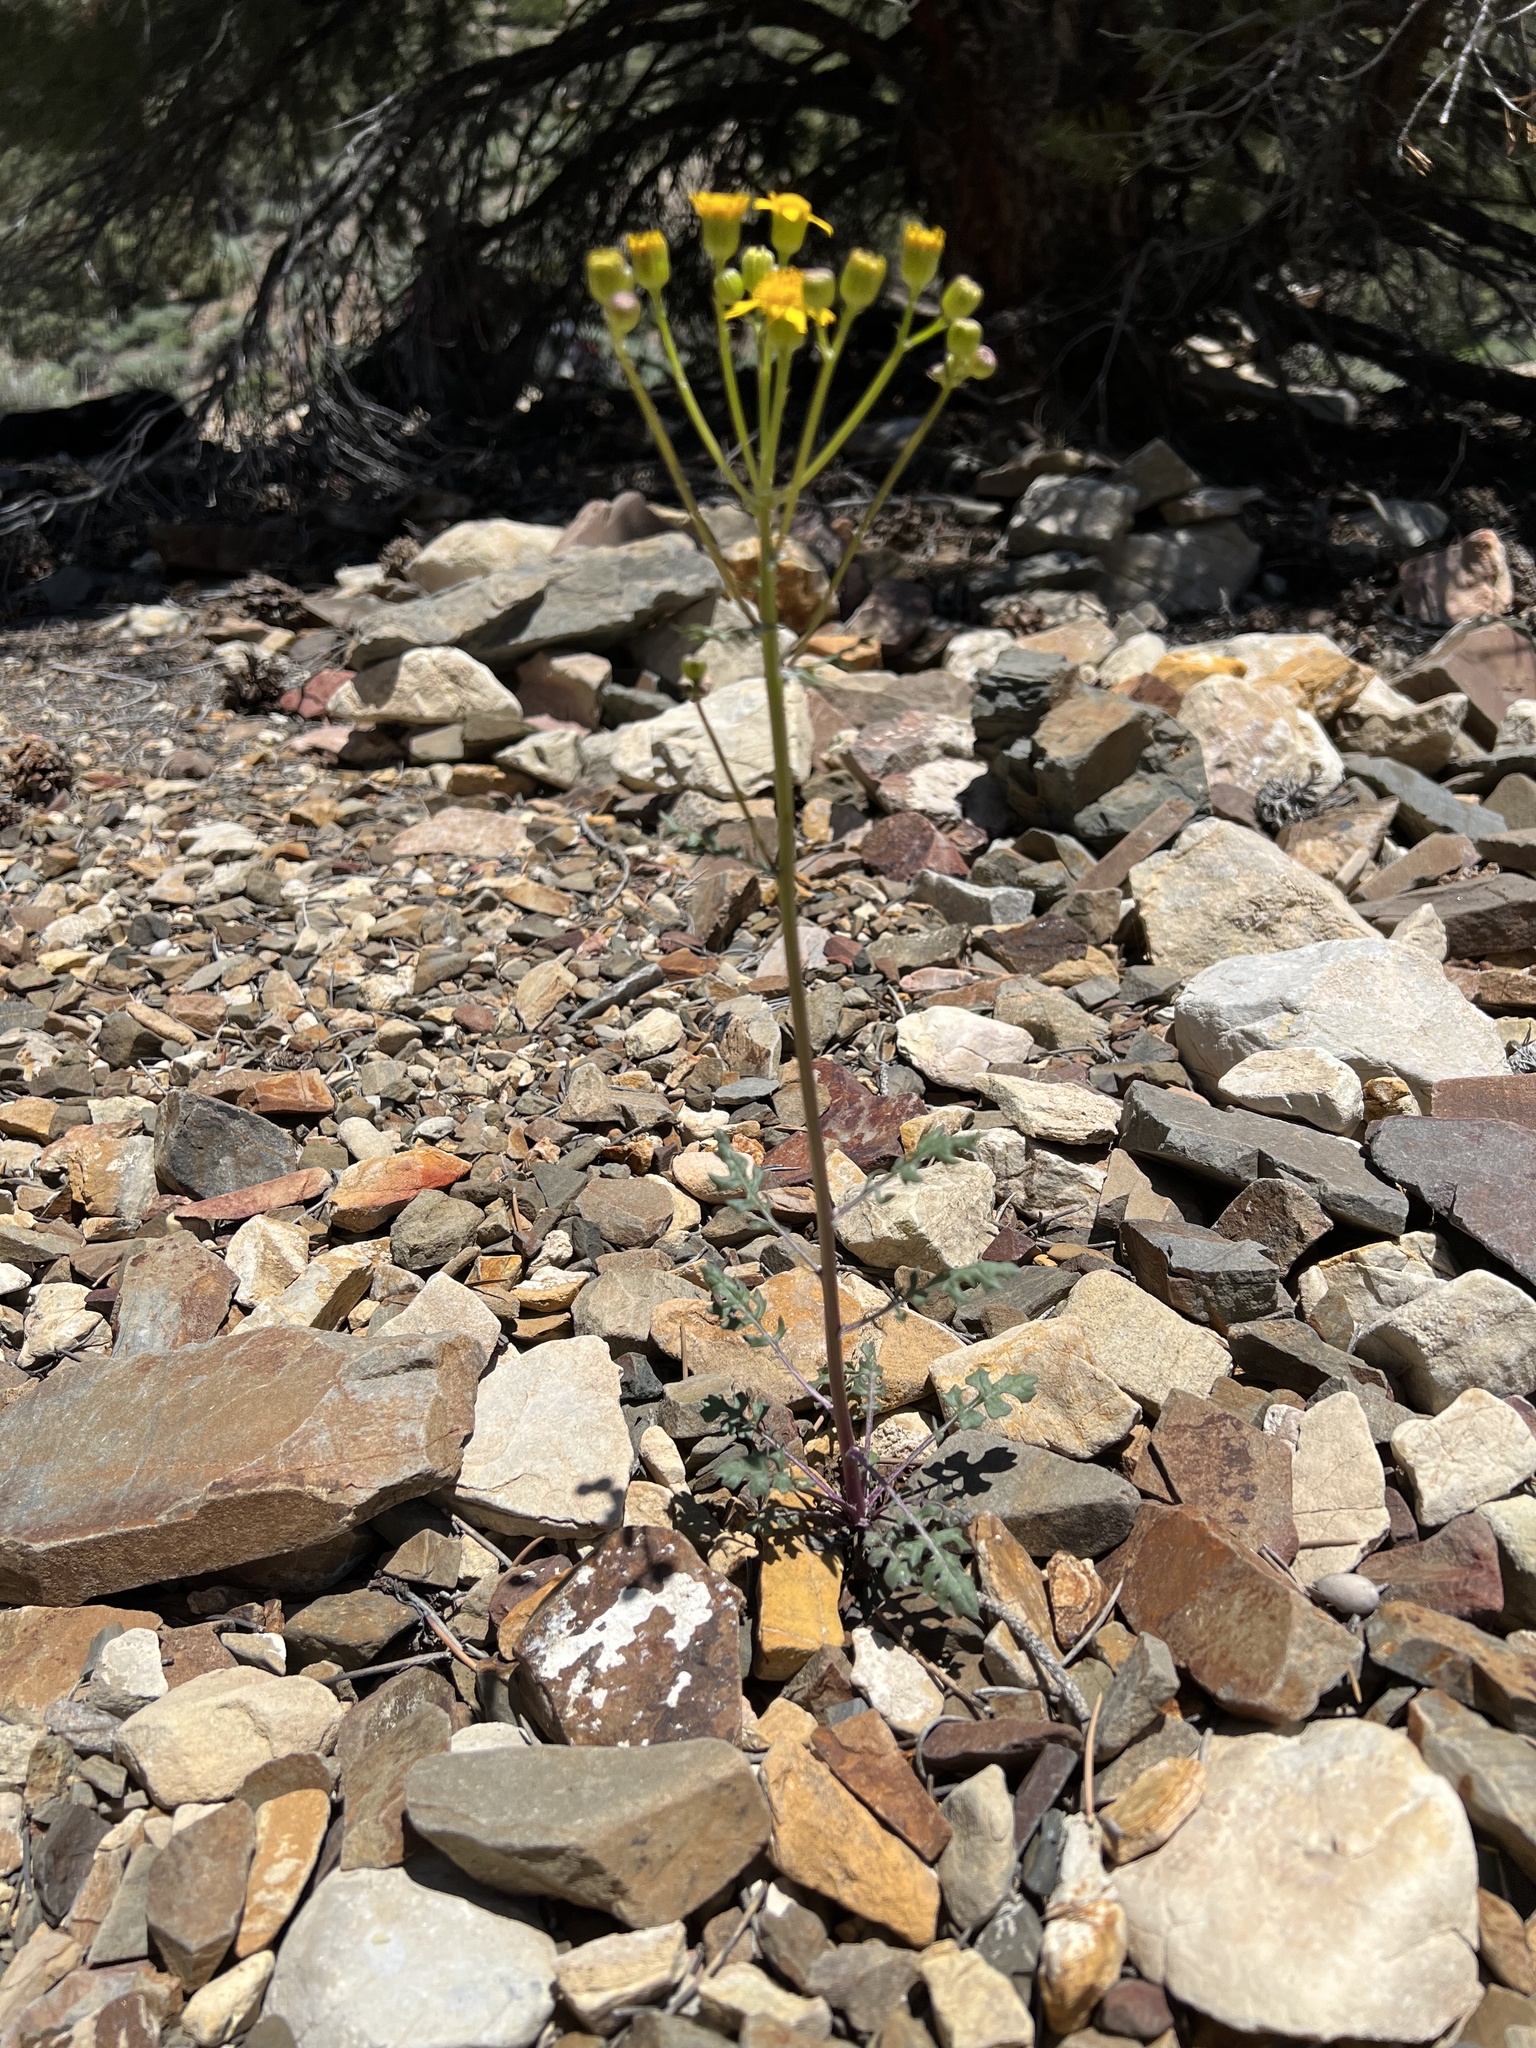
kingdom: Plantae
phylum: Tracheophyta
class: Magnoliopsida
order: Asterales
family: Asteraceae
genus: Packera
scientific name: Packera multilobata
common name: Lobe-leaf groundsel
